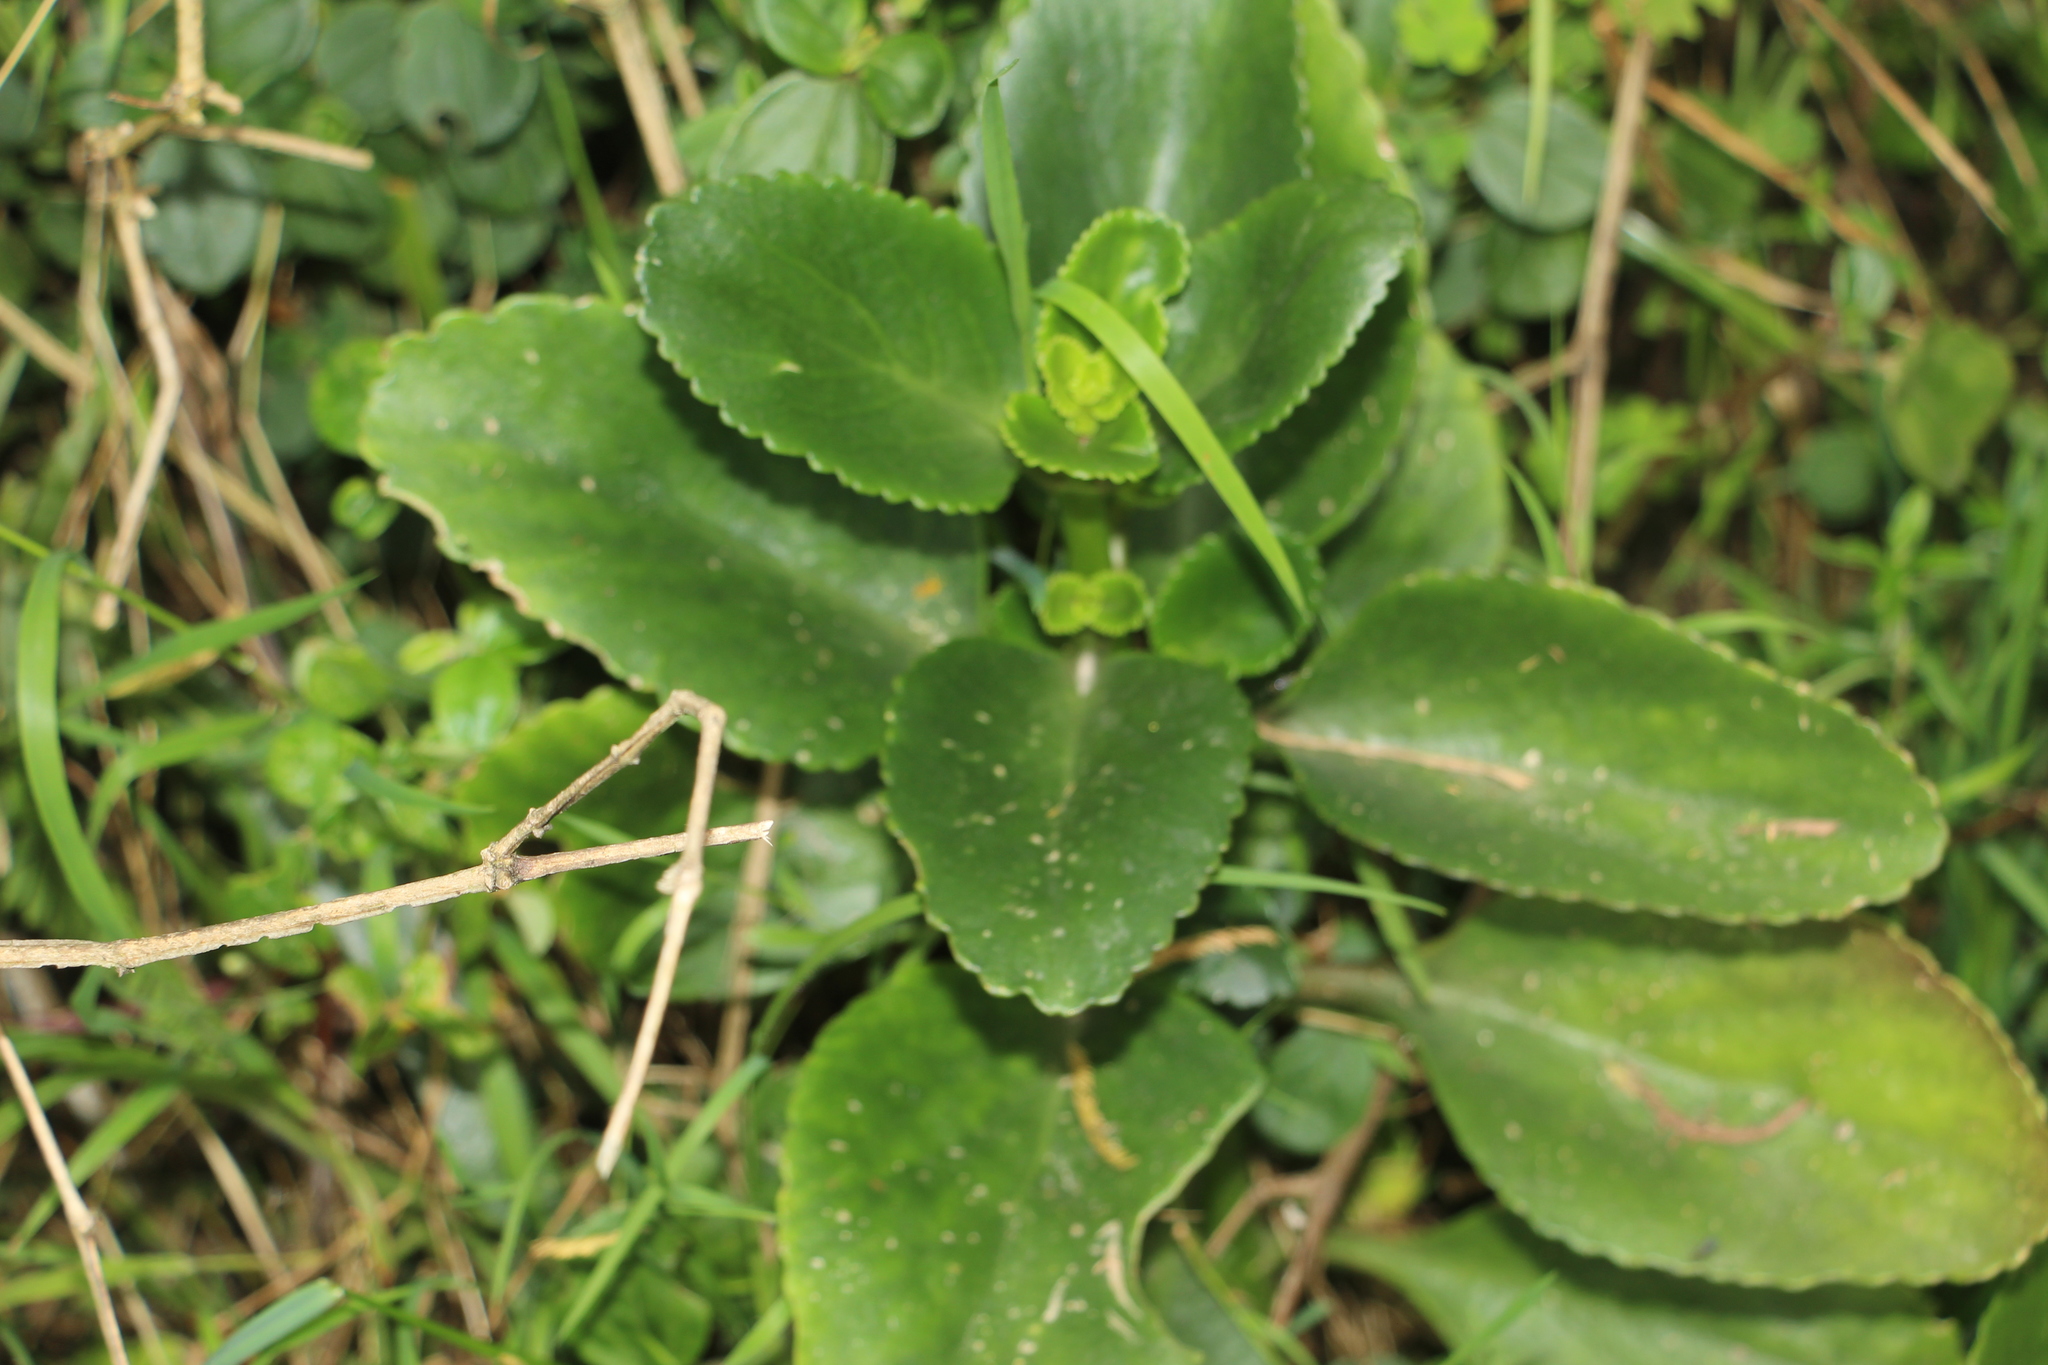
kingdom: Plantae
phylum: Tracheophyta
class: Magnoliopsida
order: Saxifragales
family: Crassulaceae
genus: Kalanchoe
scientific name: Kalanchoe densiflora
